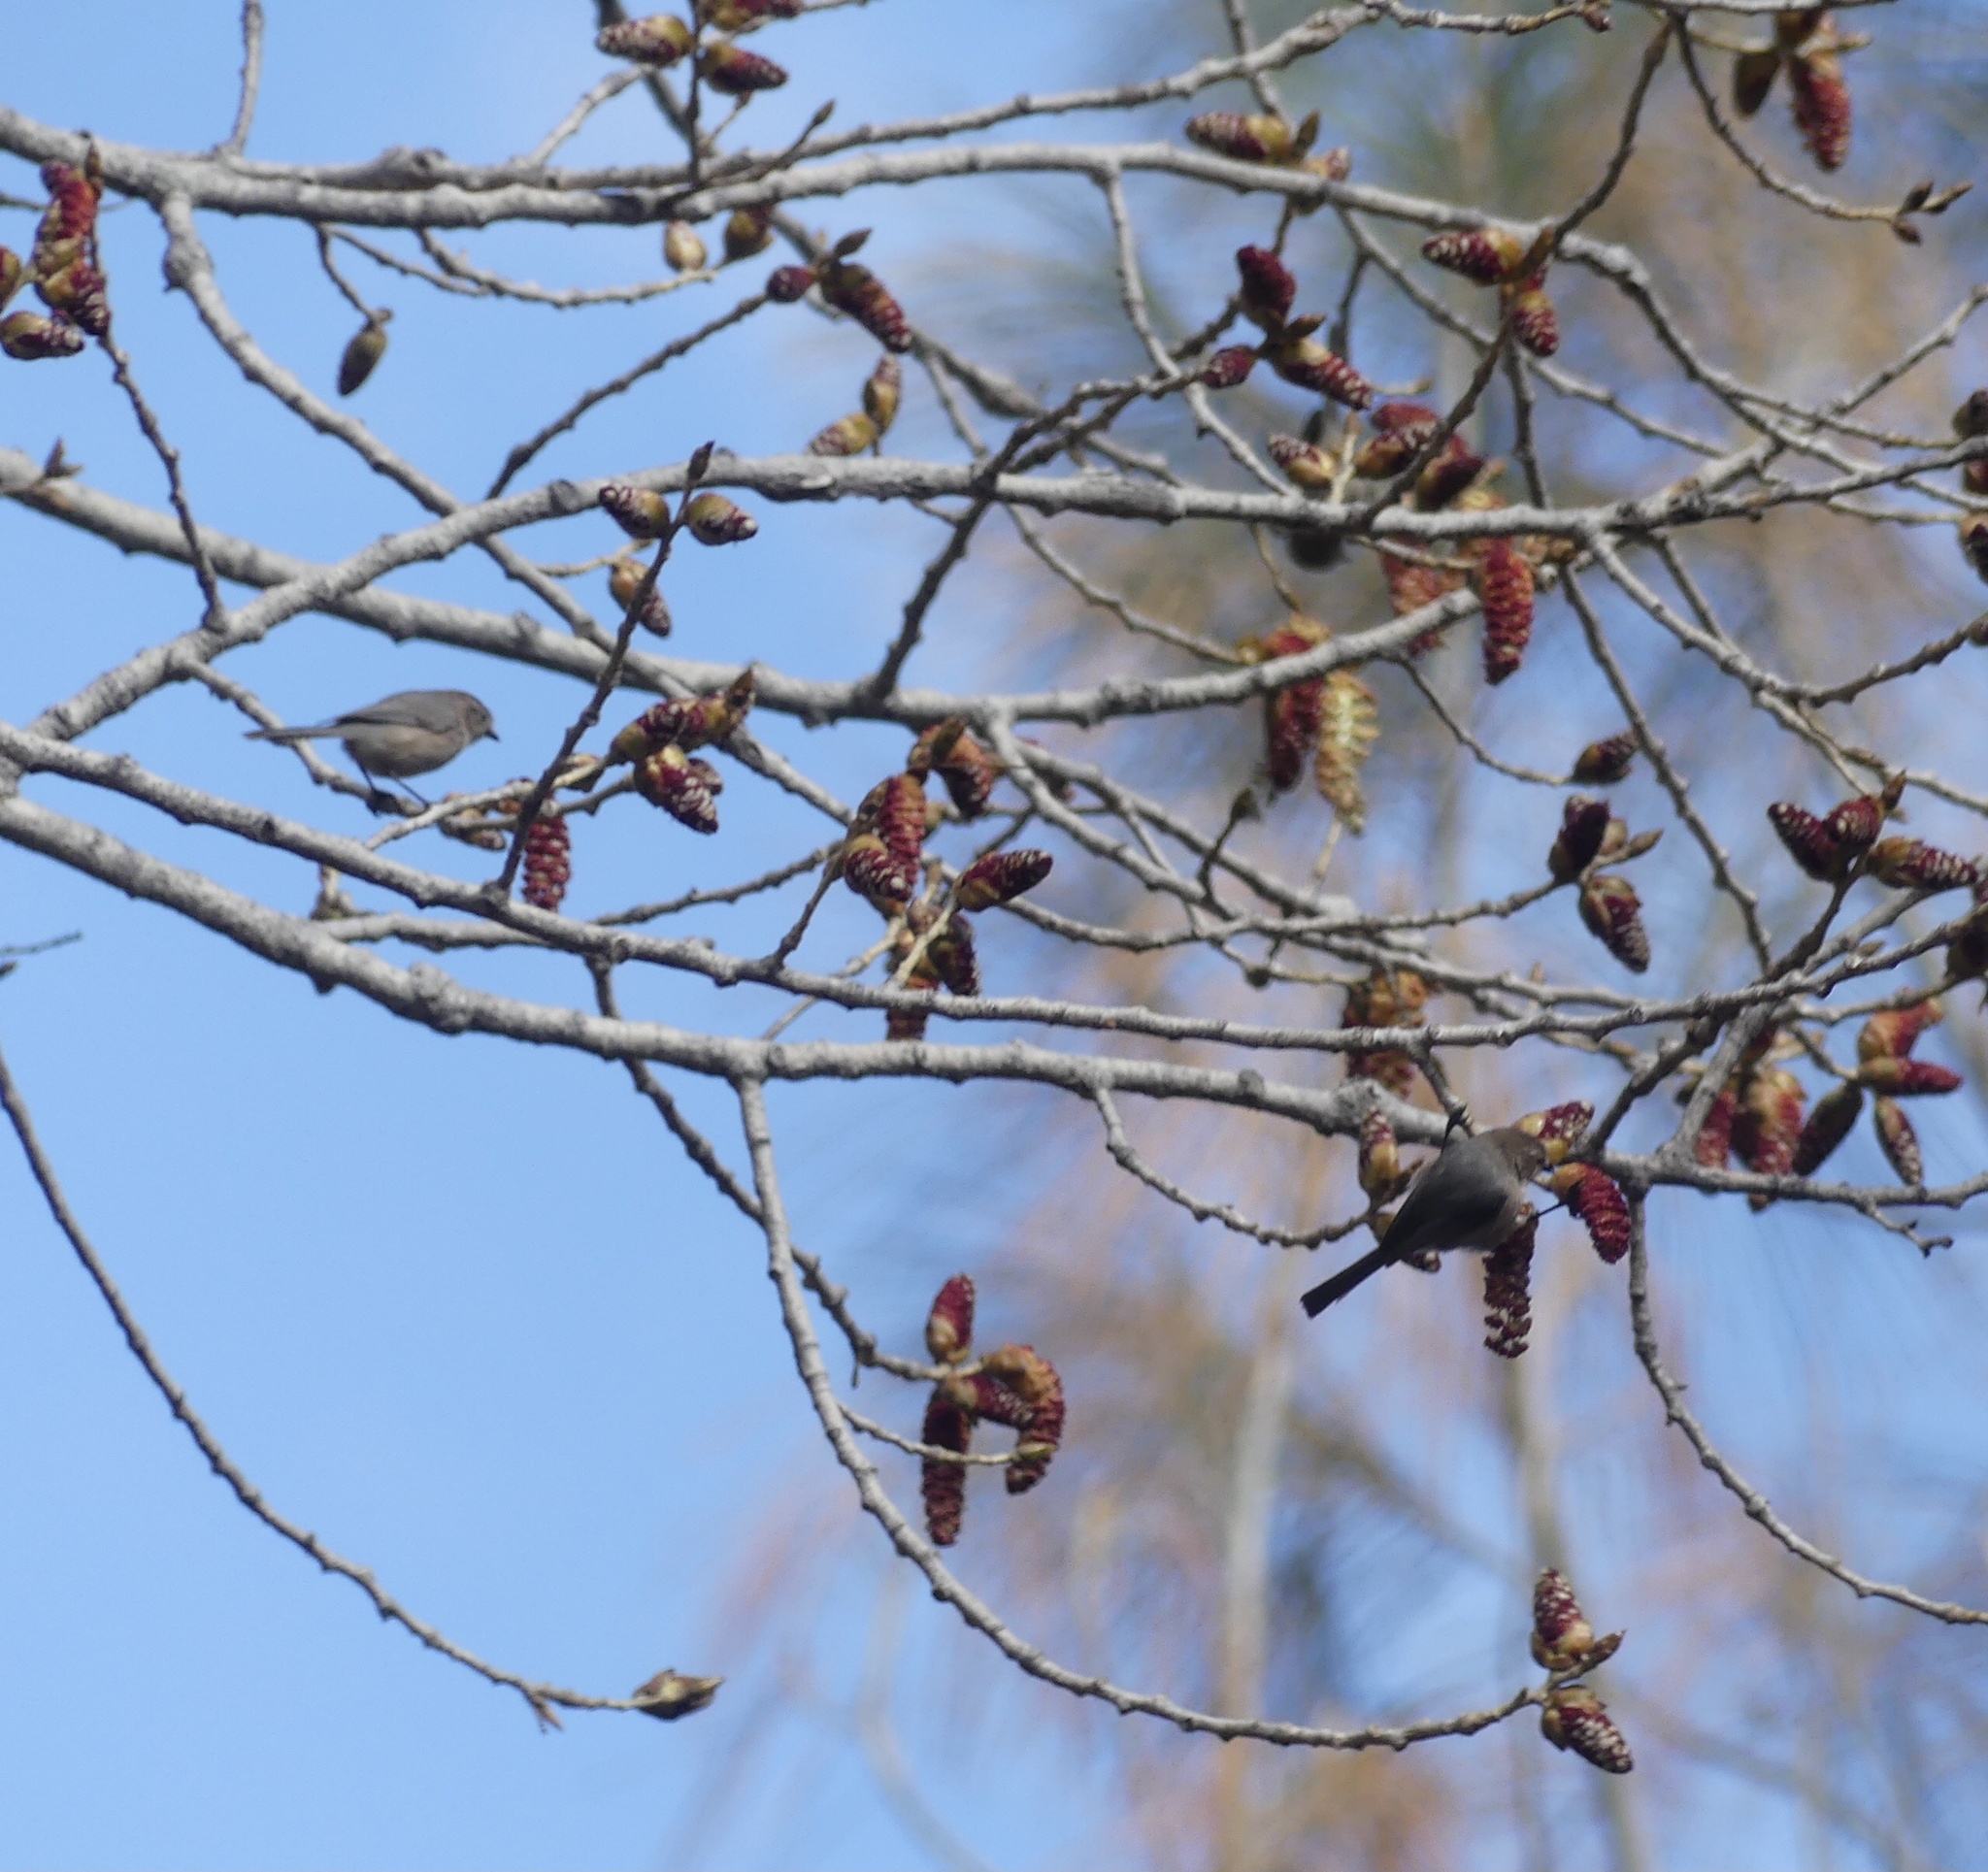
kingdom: Animalia
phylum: Chordata
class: Aves
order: Passeriformes
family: Aegithalidae
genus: Psaltriparus
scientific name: Psaltriparus minimus
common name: American bushtit
